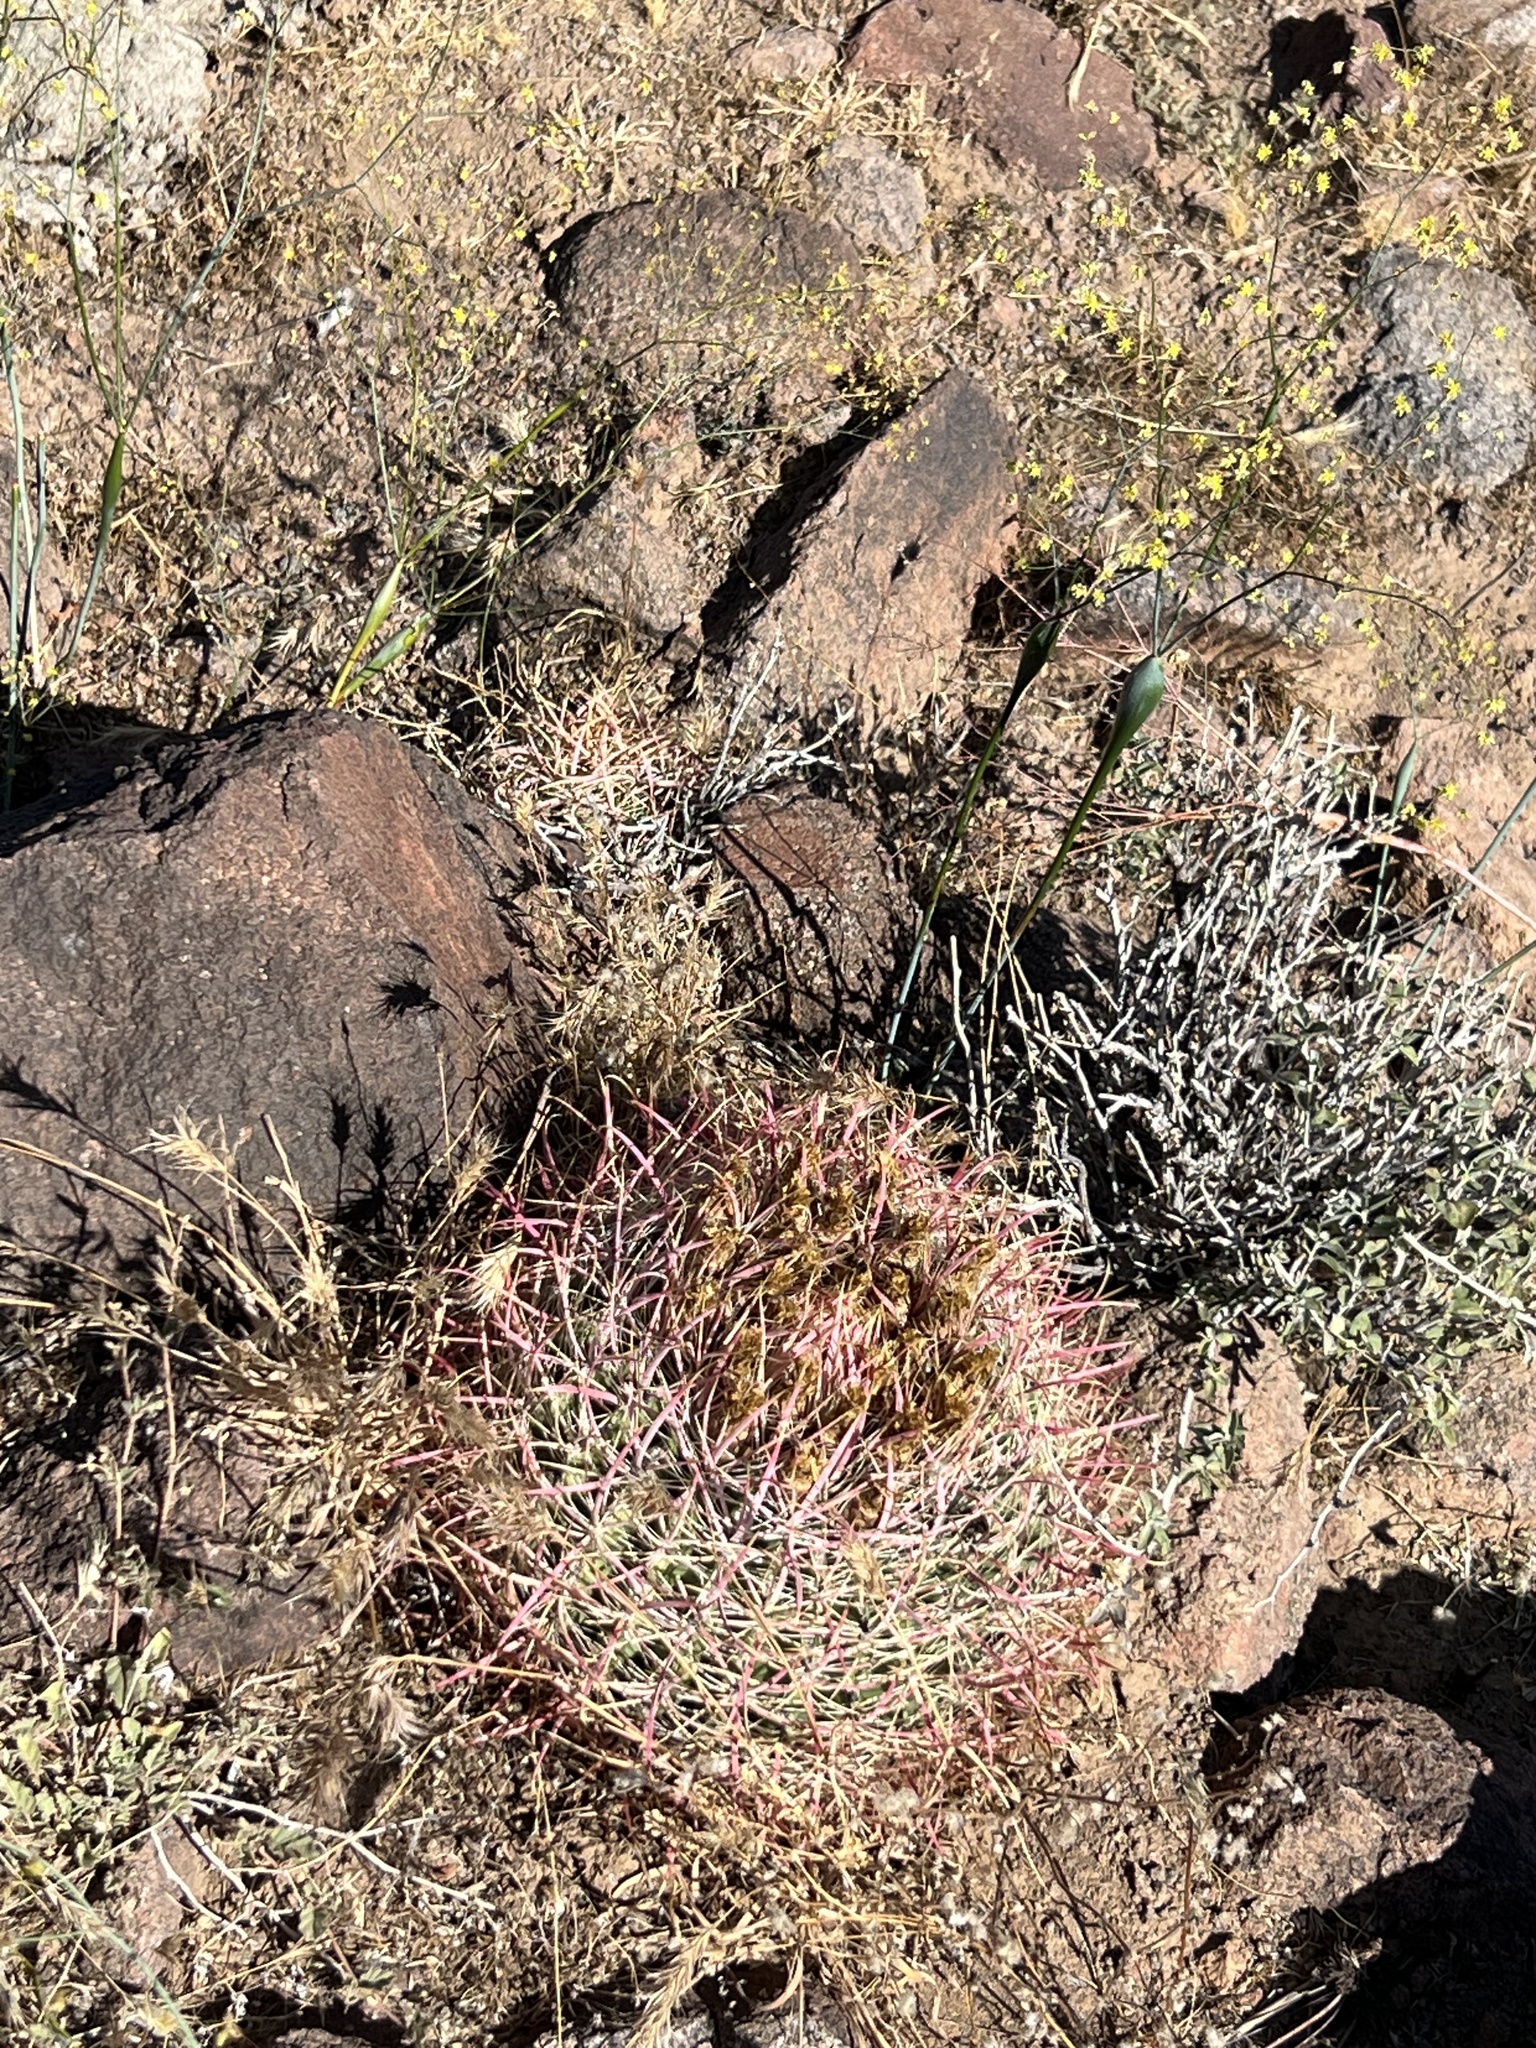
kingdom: Plantae
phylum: Tracheophyta
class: Magnoliopsida
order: Caryophyllales
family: Cactaceae
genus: Ferocactus
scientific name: Ferocactus cylindraceus
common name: California barrel cactus
